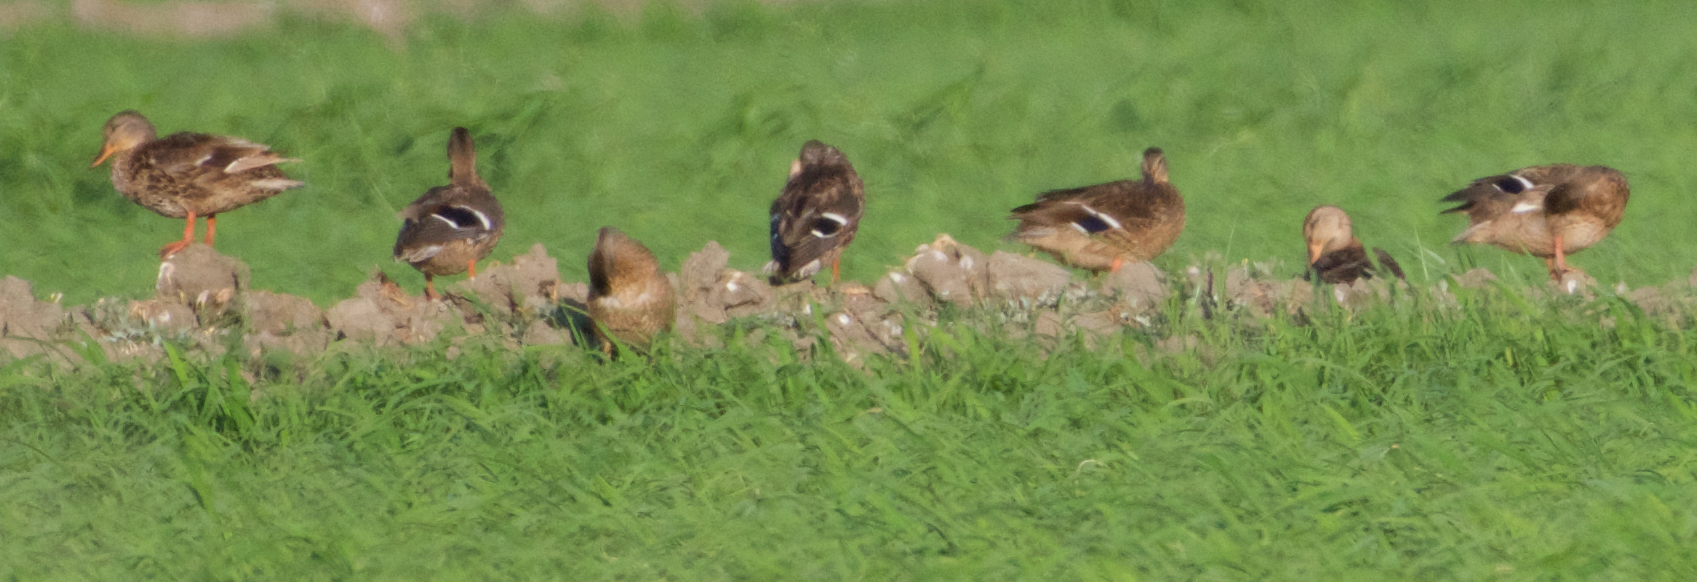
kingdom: Animalia
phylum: Chordata
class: Aves
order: Anseriformes
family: Anatidae
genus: Anas
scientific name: Anas platyrhynchos
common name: Mallard
